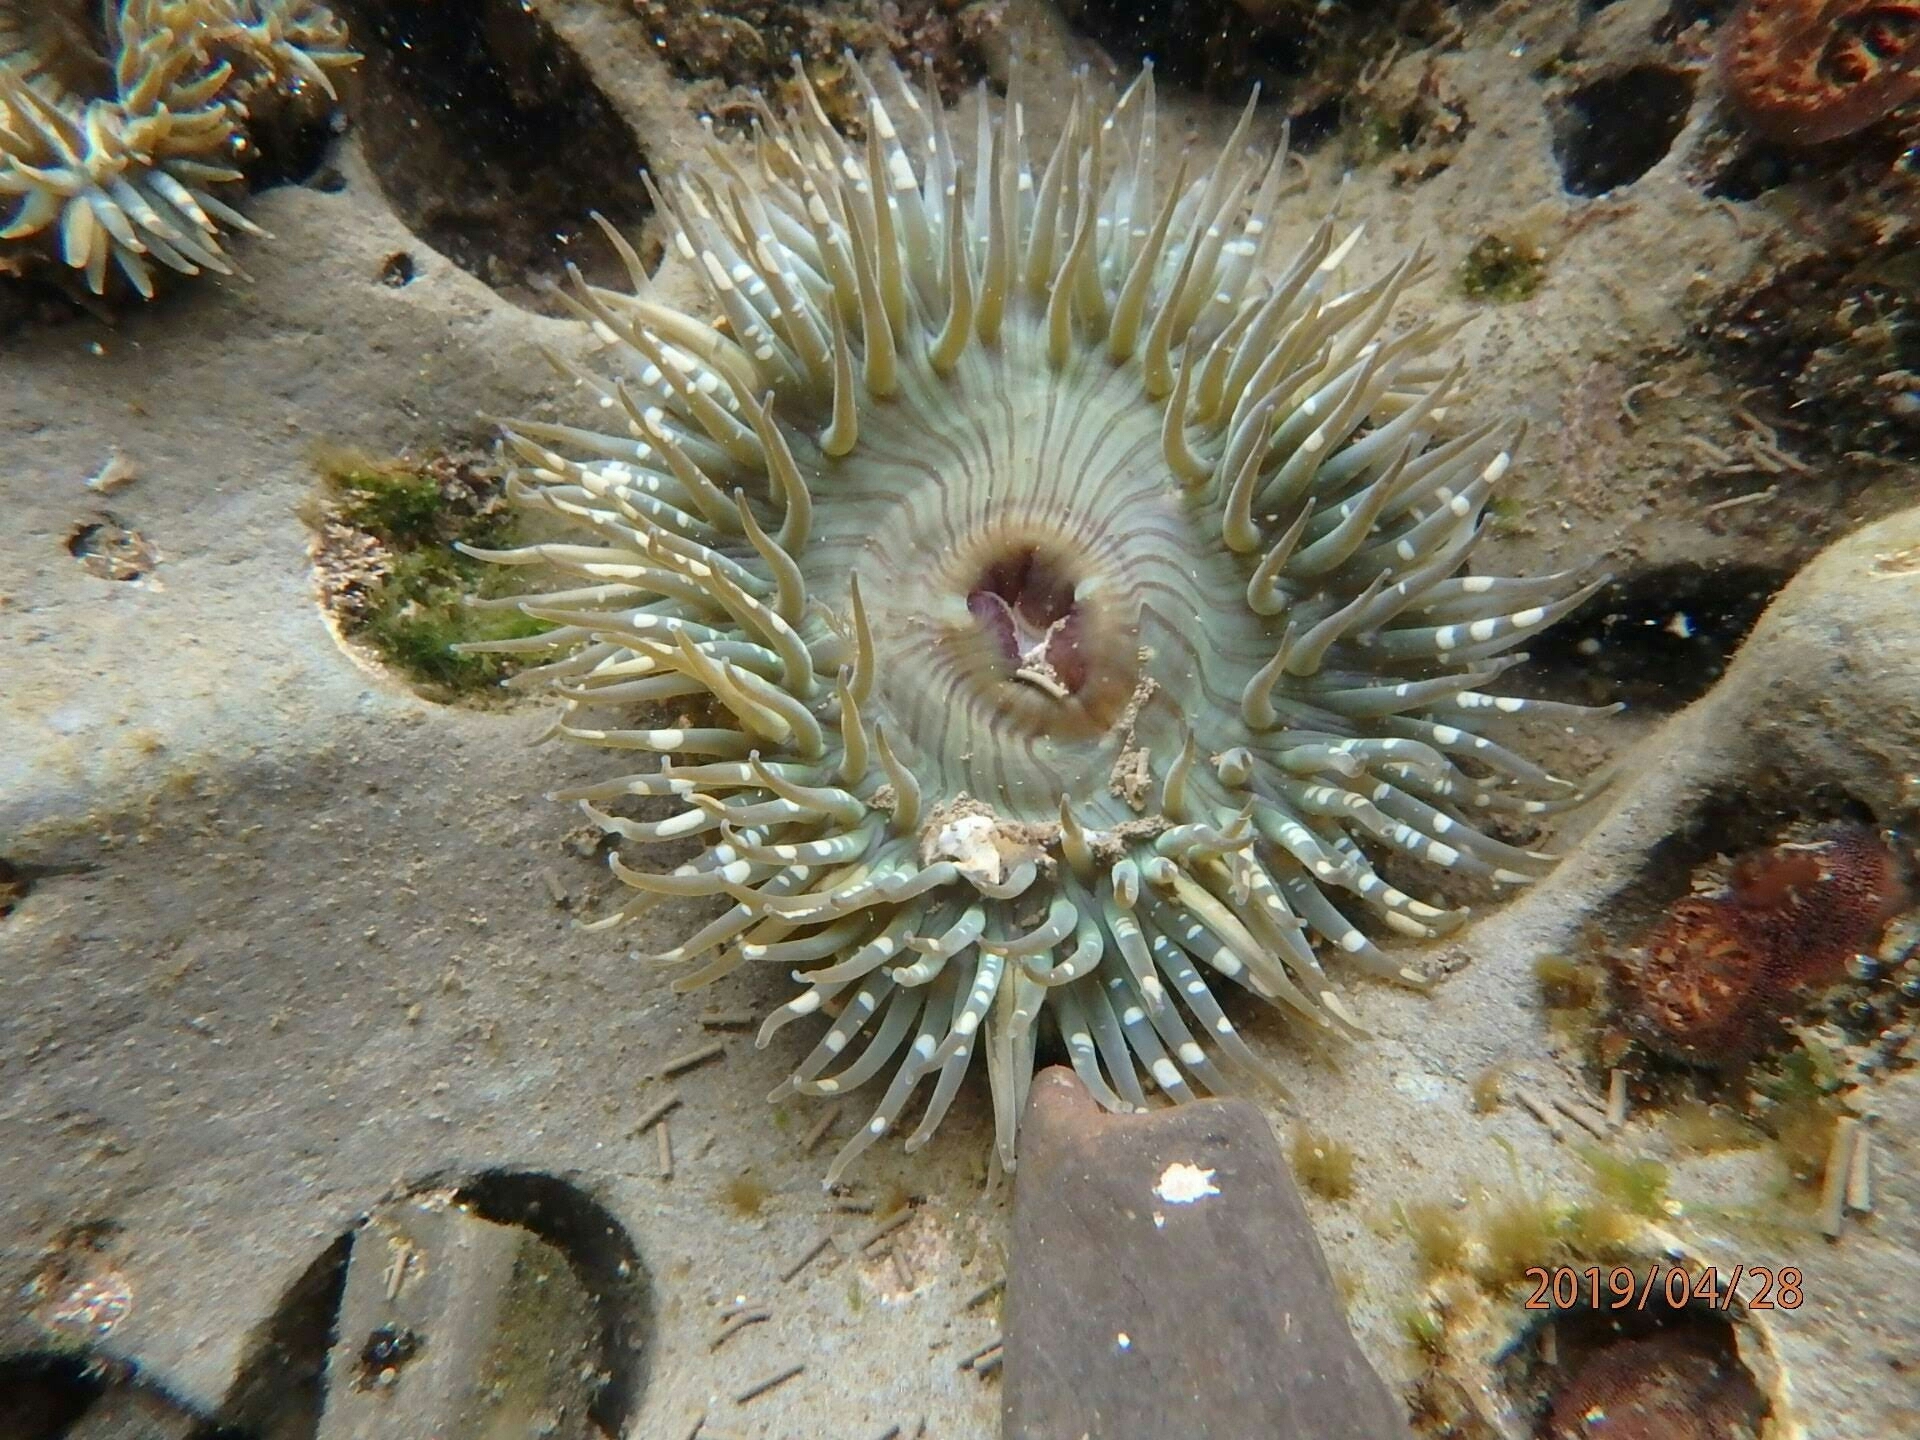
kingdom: Animalia
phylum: Cnidaria
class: Anthozoa
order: Actiniaria
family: Actiniidae
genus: Anthopleura
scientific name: Anthopleura sola
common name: Sun anemone
